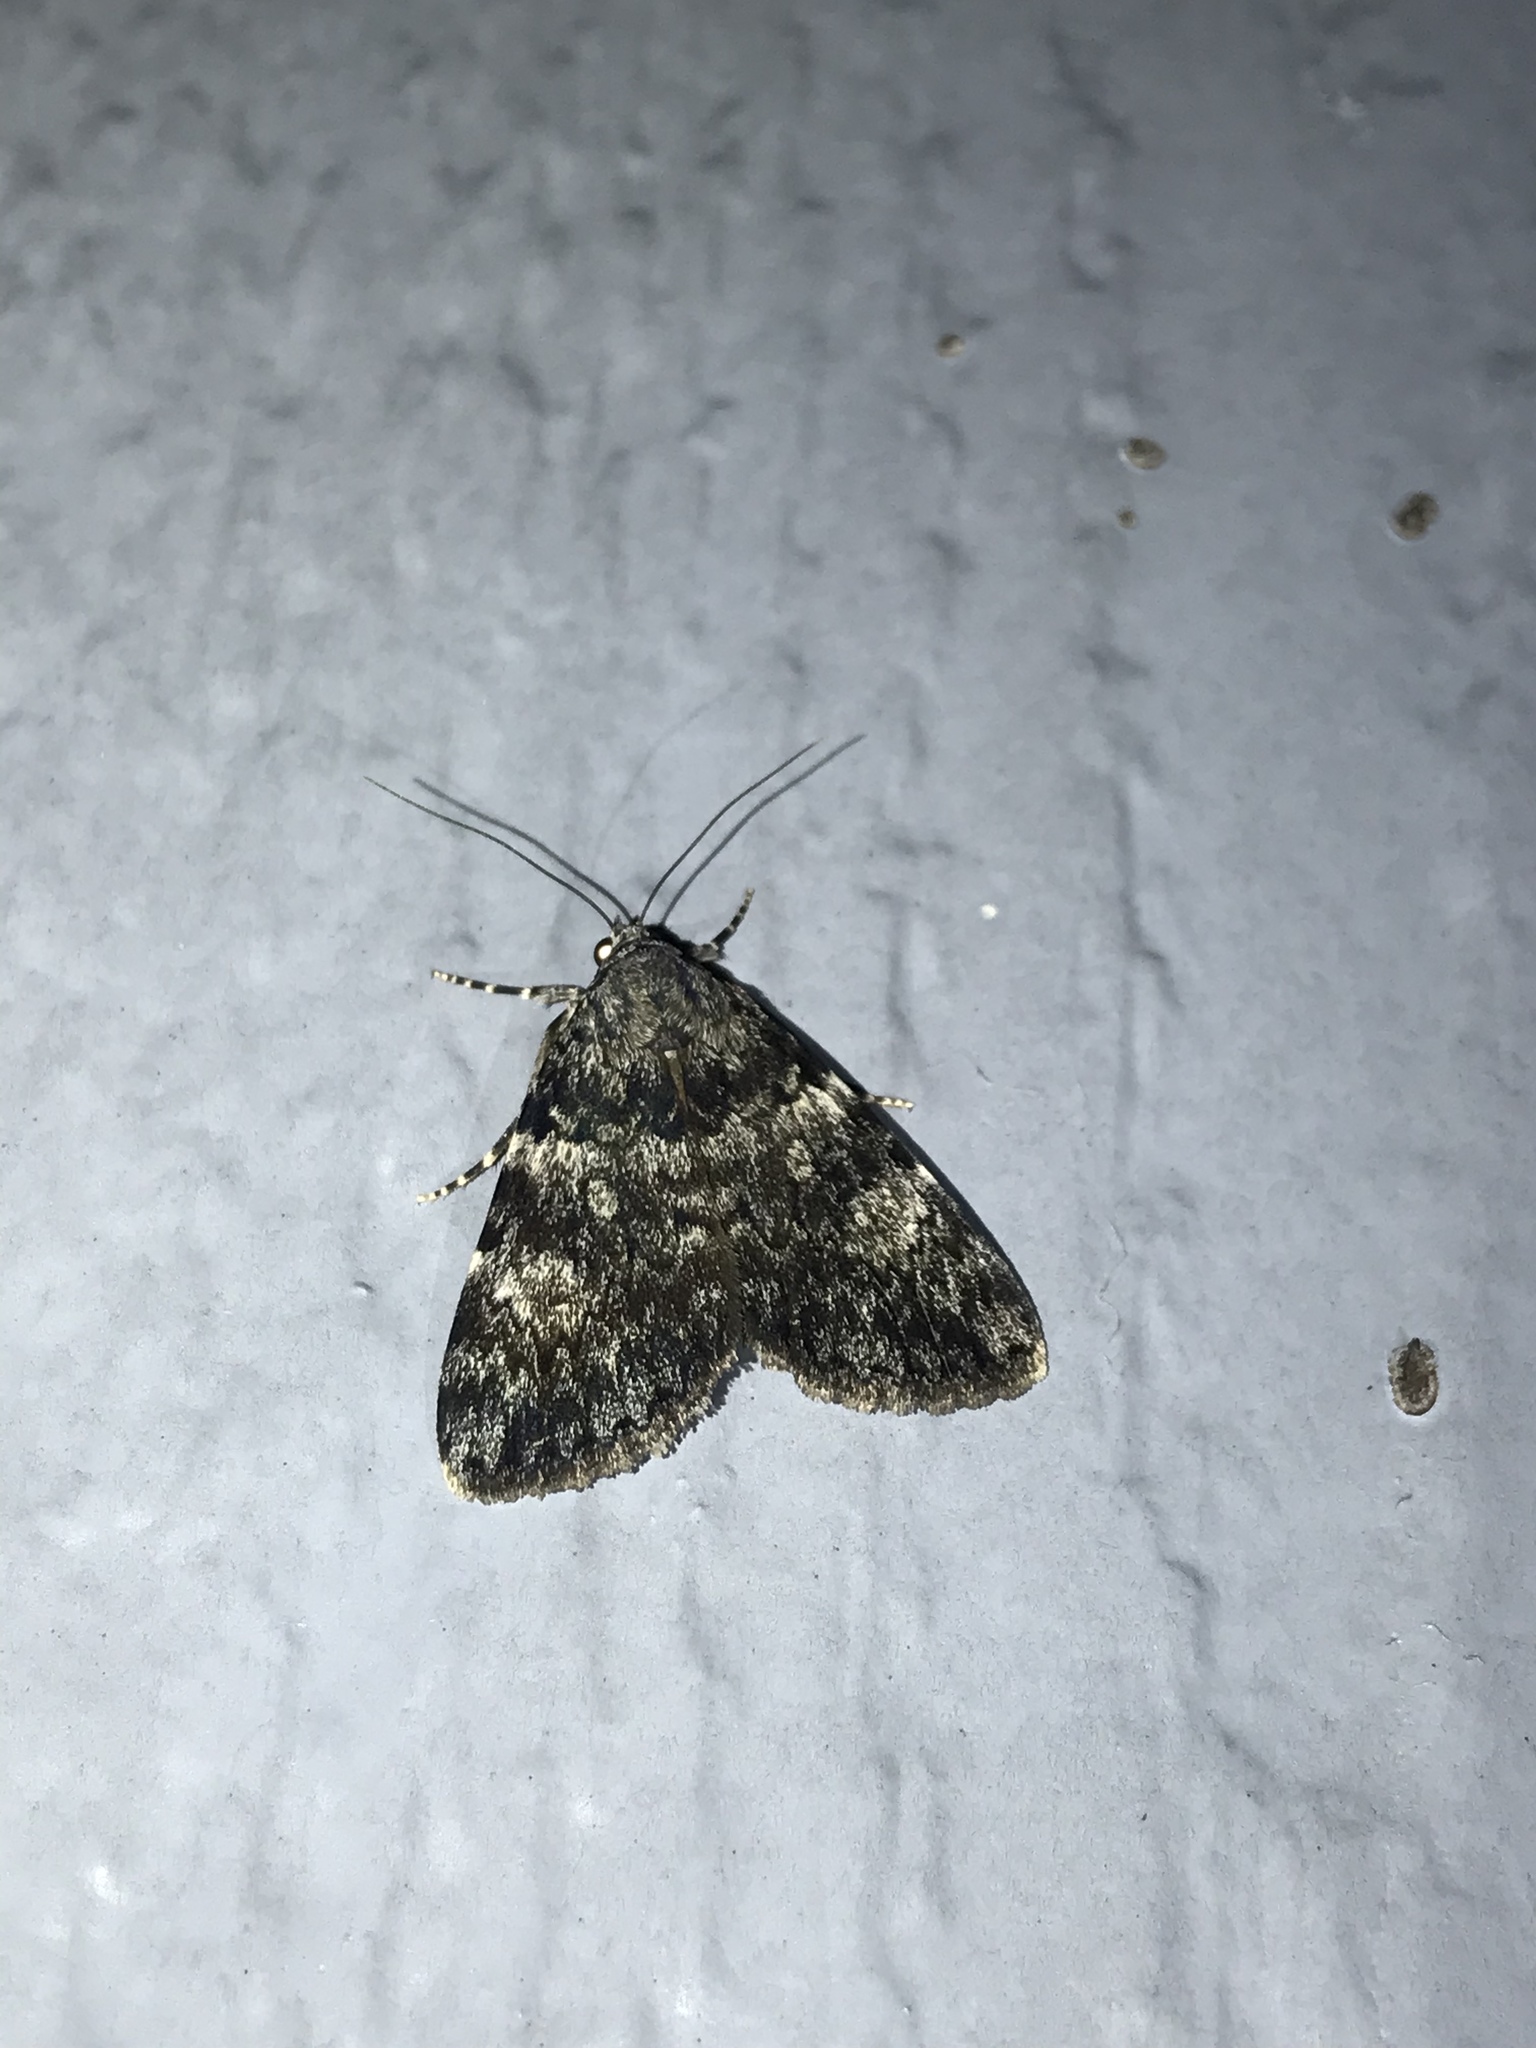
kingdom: Animalia
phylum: Arthropoda
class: Insecta
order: Lepidoptera
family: Erebidae
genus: Catocala
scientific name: Catocala lineella
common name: Little lined underwing
